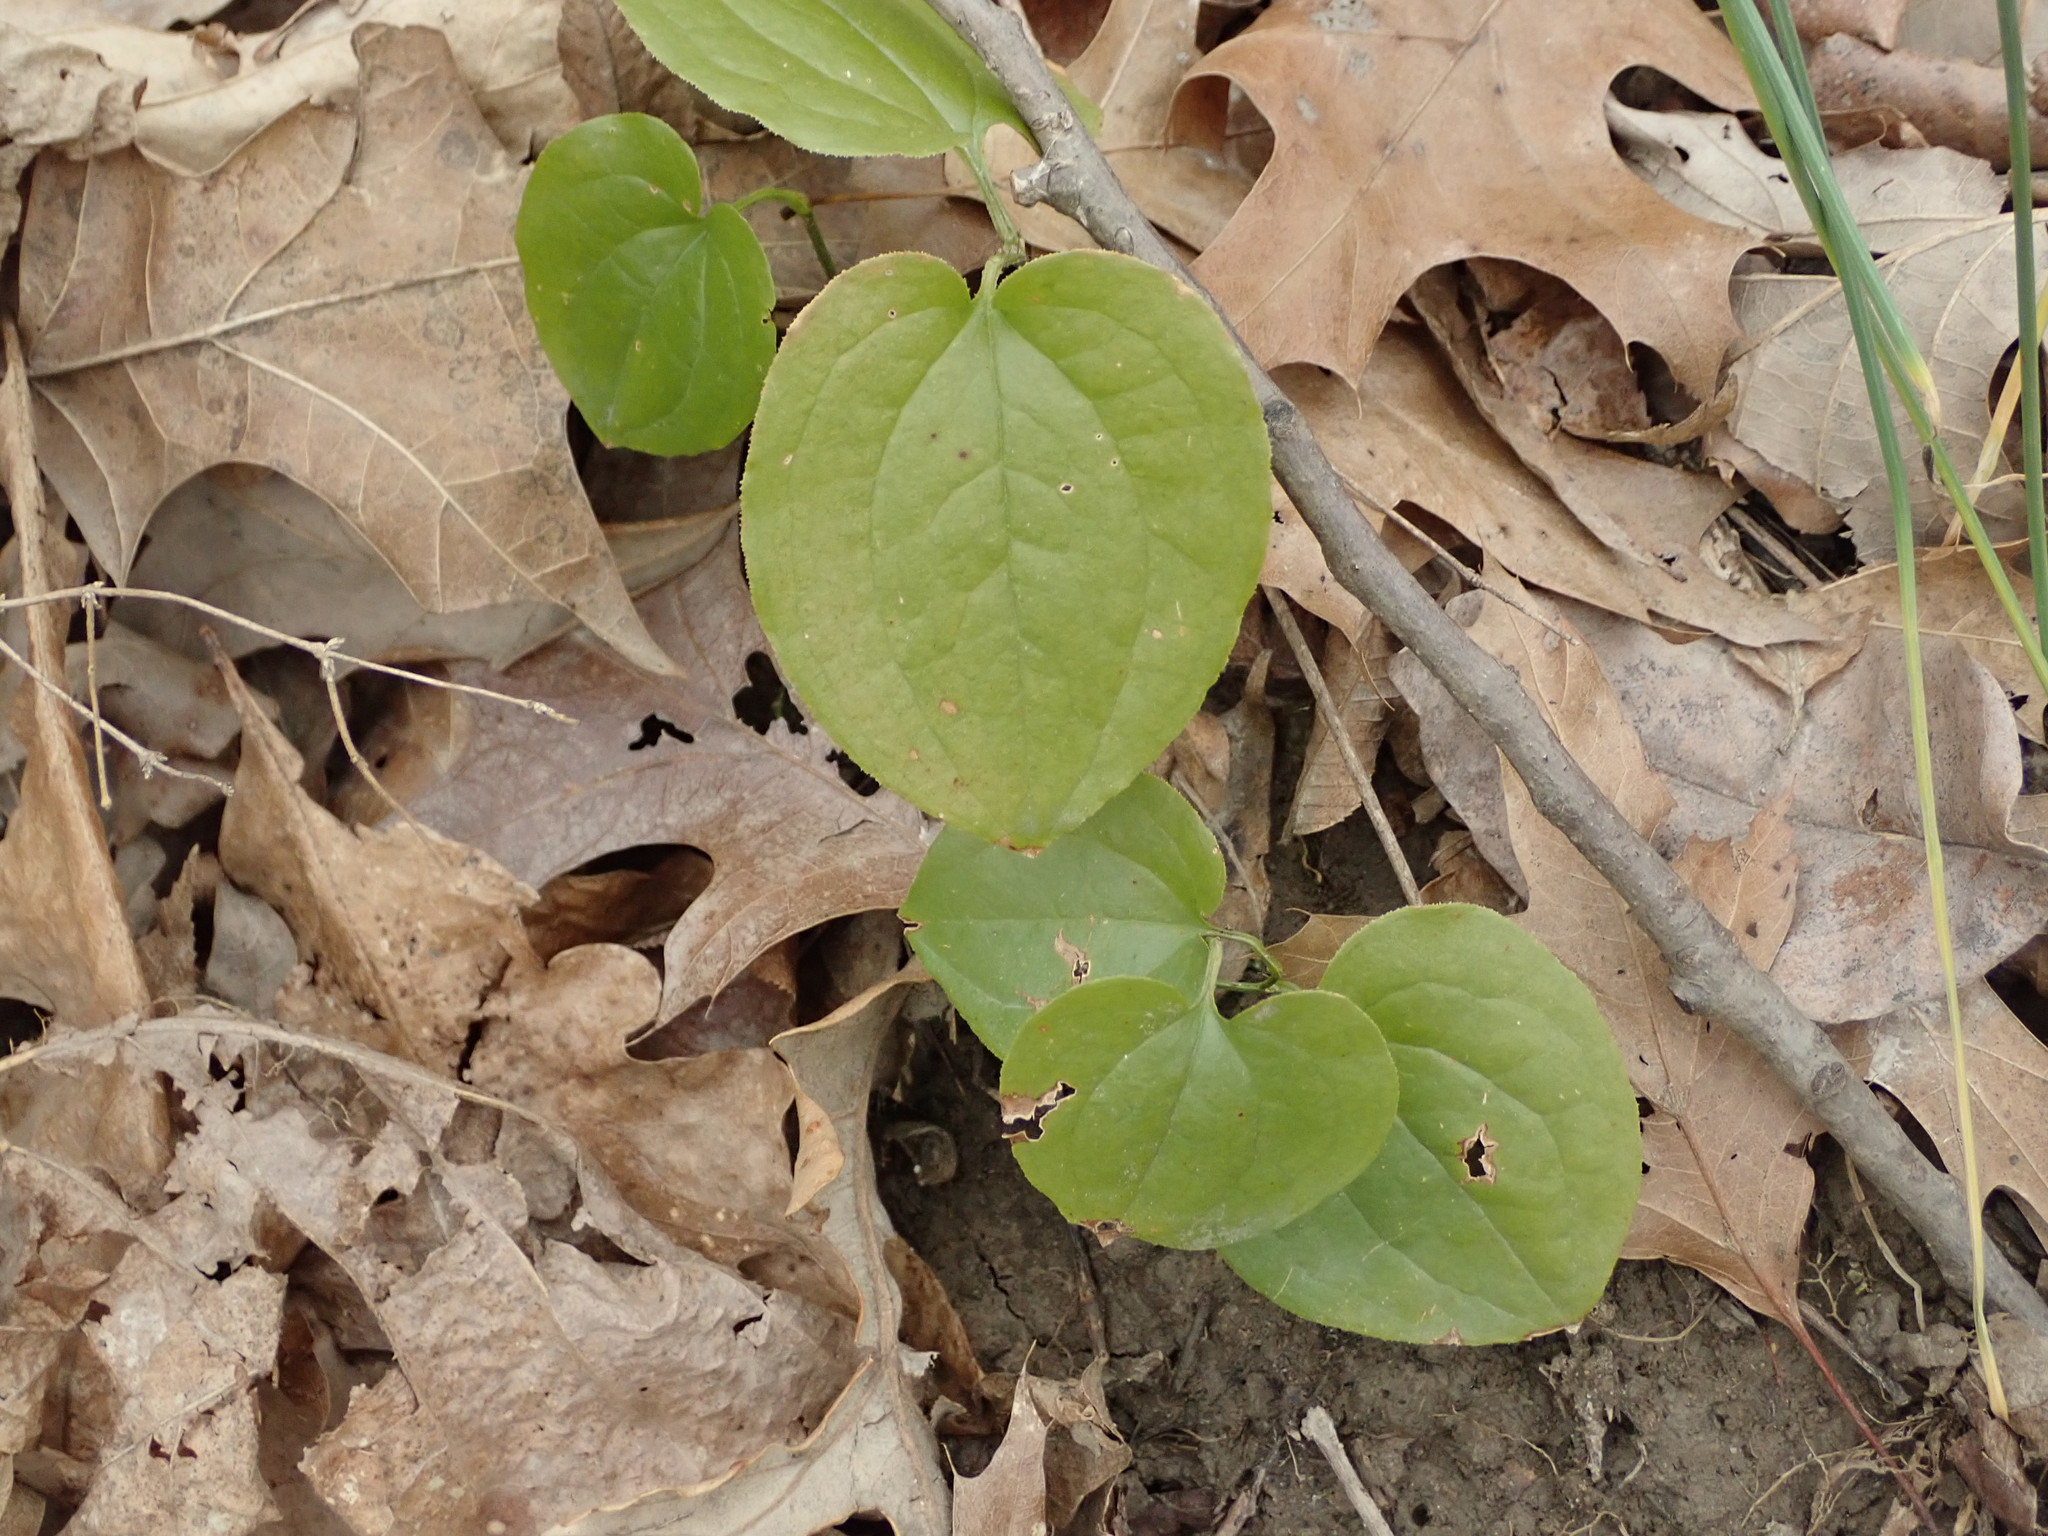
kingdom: Plantae
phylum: Tracheophyta
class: Liliopsida
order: Liliales
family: Smilacaceae
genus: Smilax
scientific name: Smilax tamnoides
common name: Hellfetter
